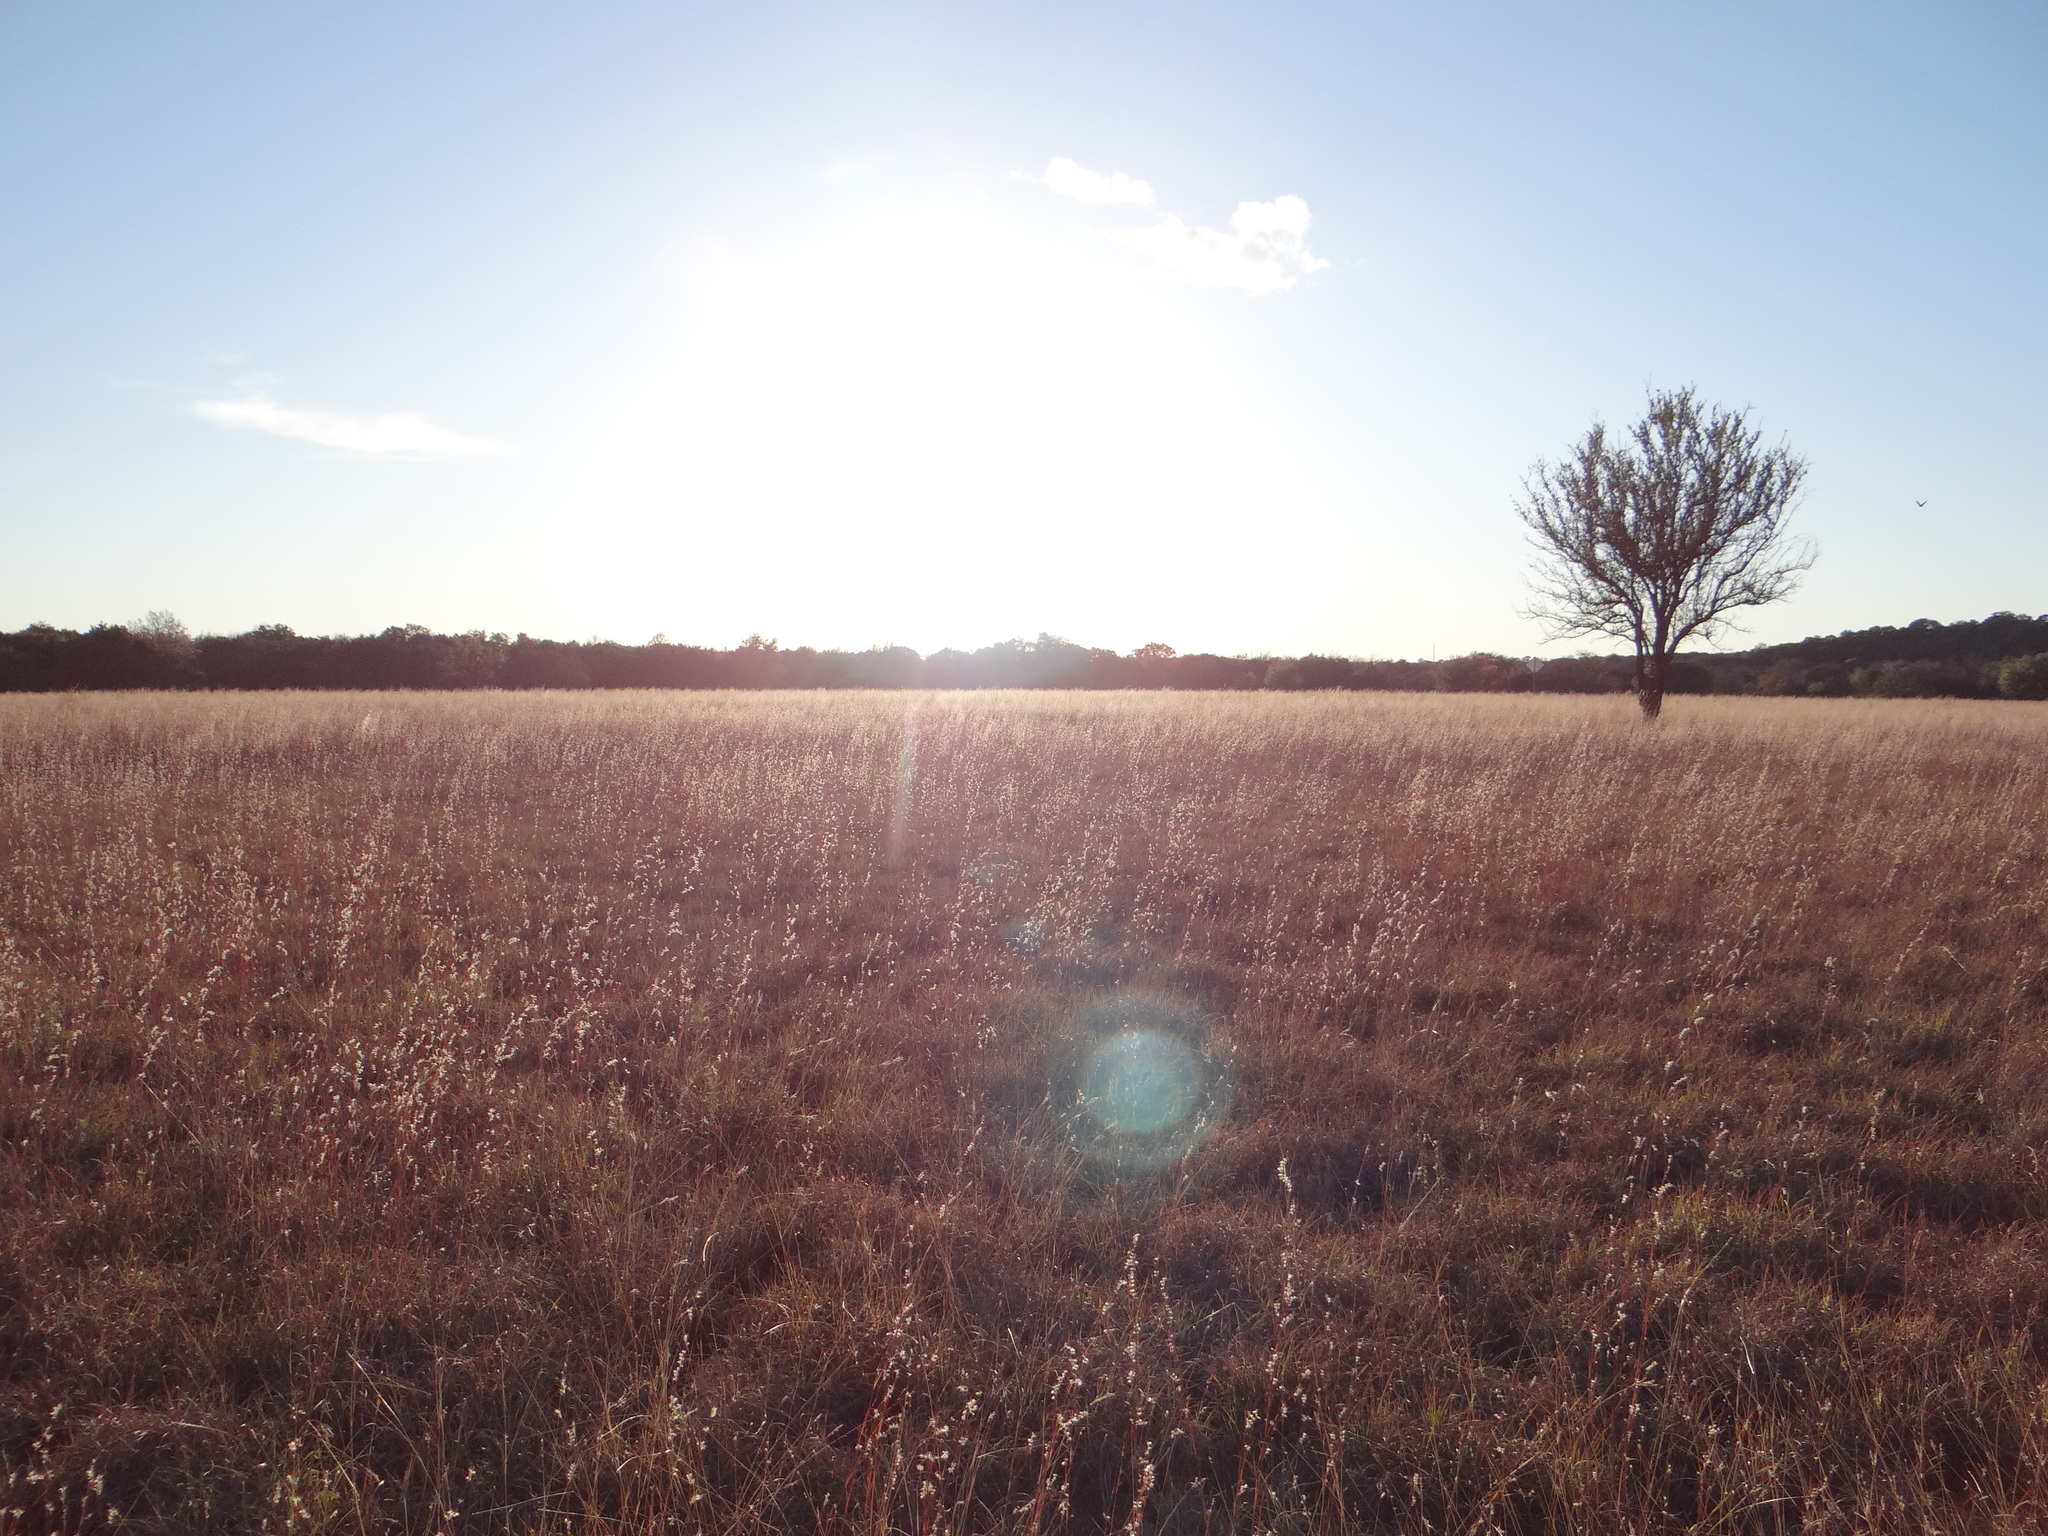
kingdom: Plantae
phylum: Tracheophyta
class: Liliopsida
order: Poales
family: Poaceae
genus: Schizachyrium
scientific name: Schizachyrium scoparium
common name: Little bluestem
